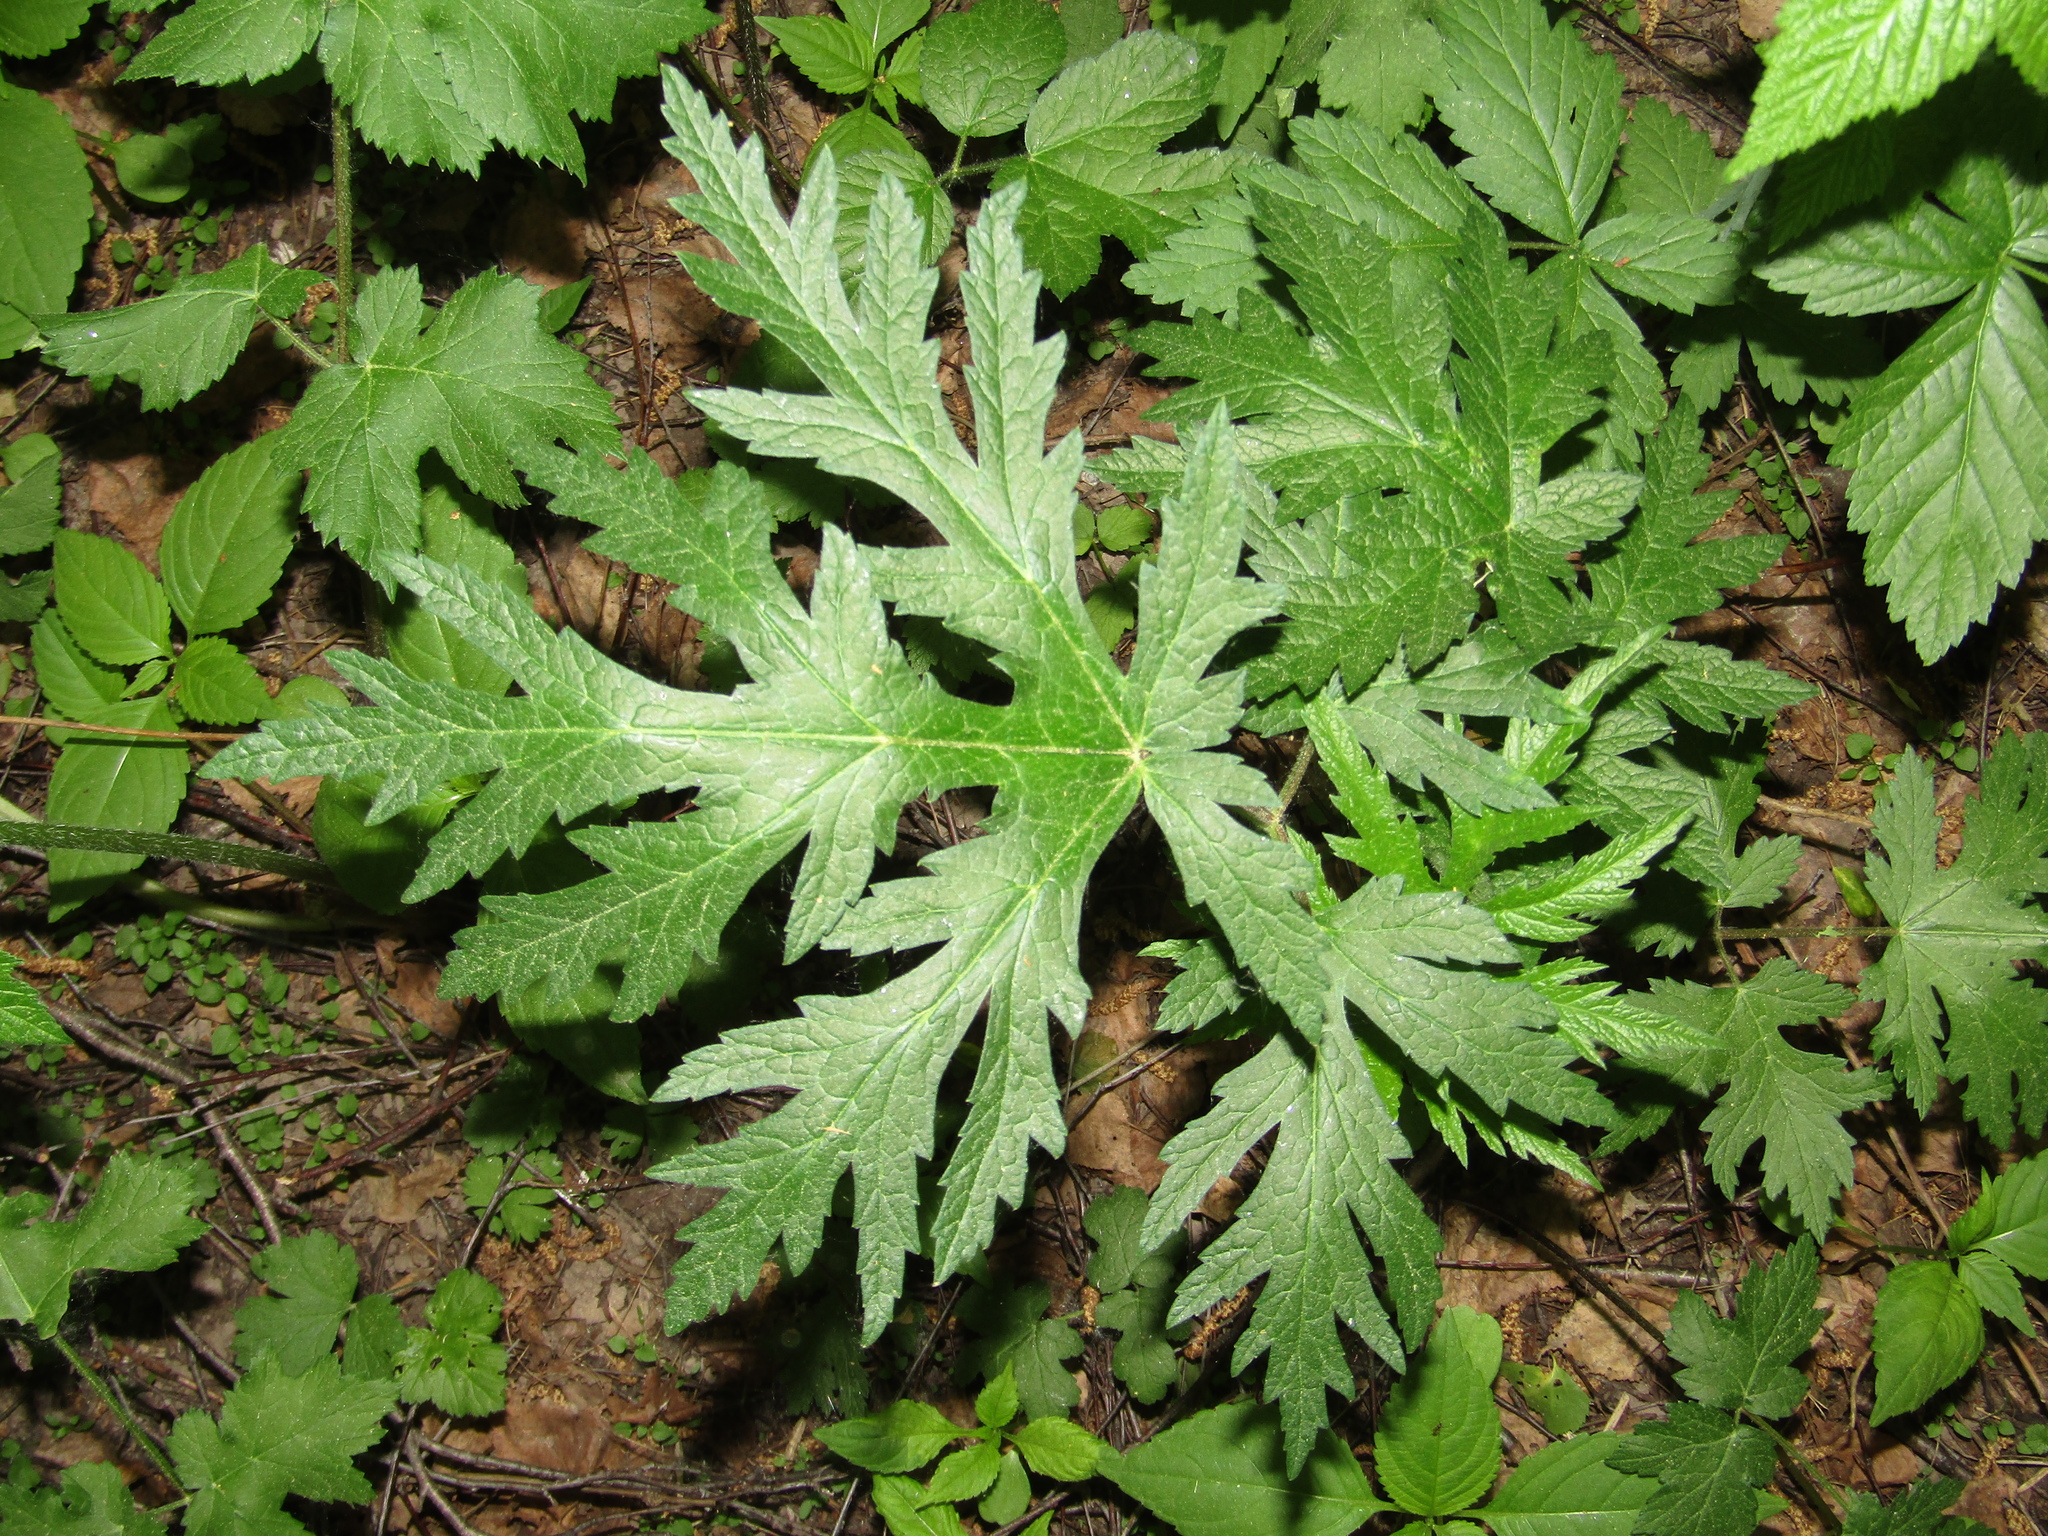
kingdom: Plantae
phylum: Tracheophyta
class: Magnoliopsida
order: Apiales
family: Apiaceae
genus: Heracleum
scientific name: Heracleum sphondylium
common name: Hogweed
